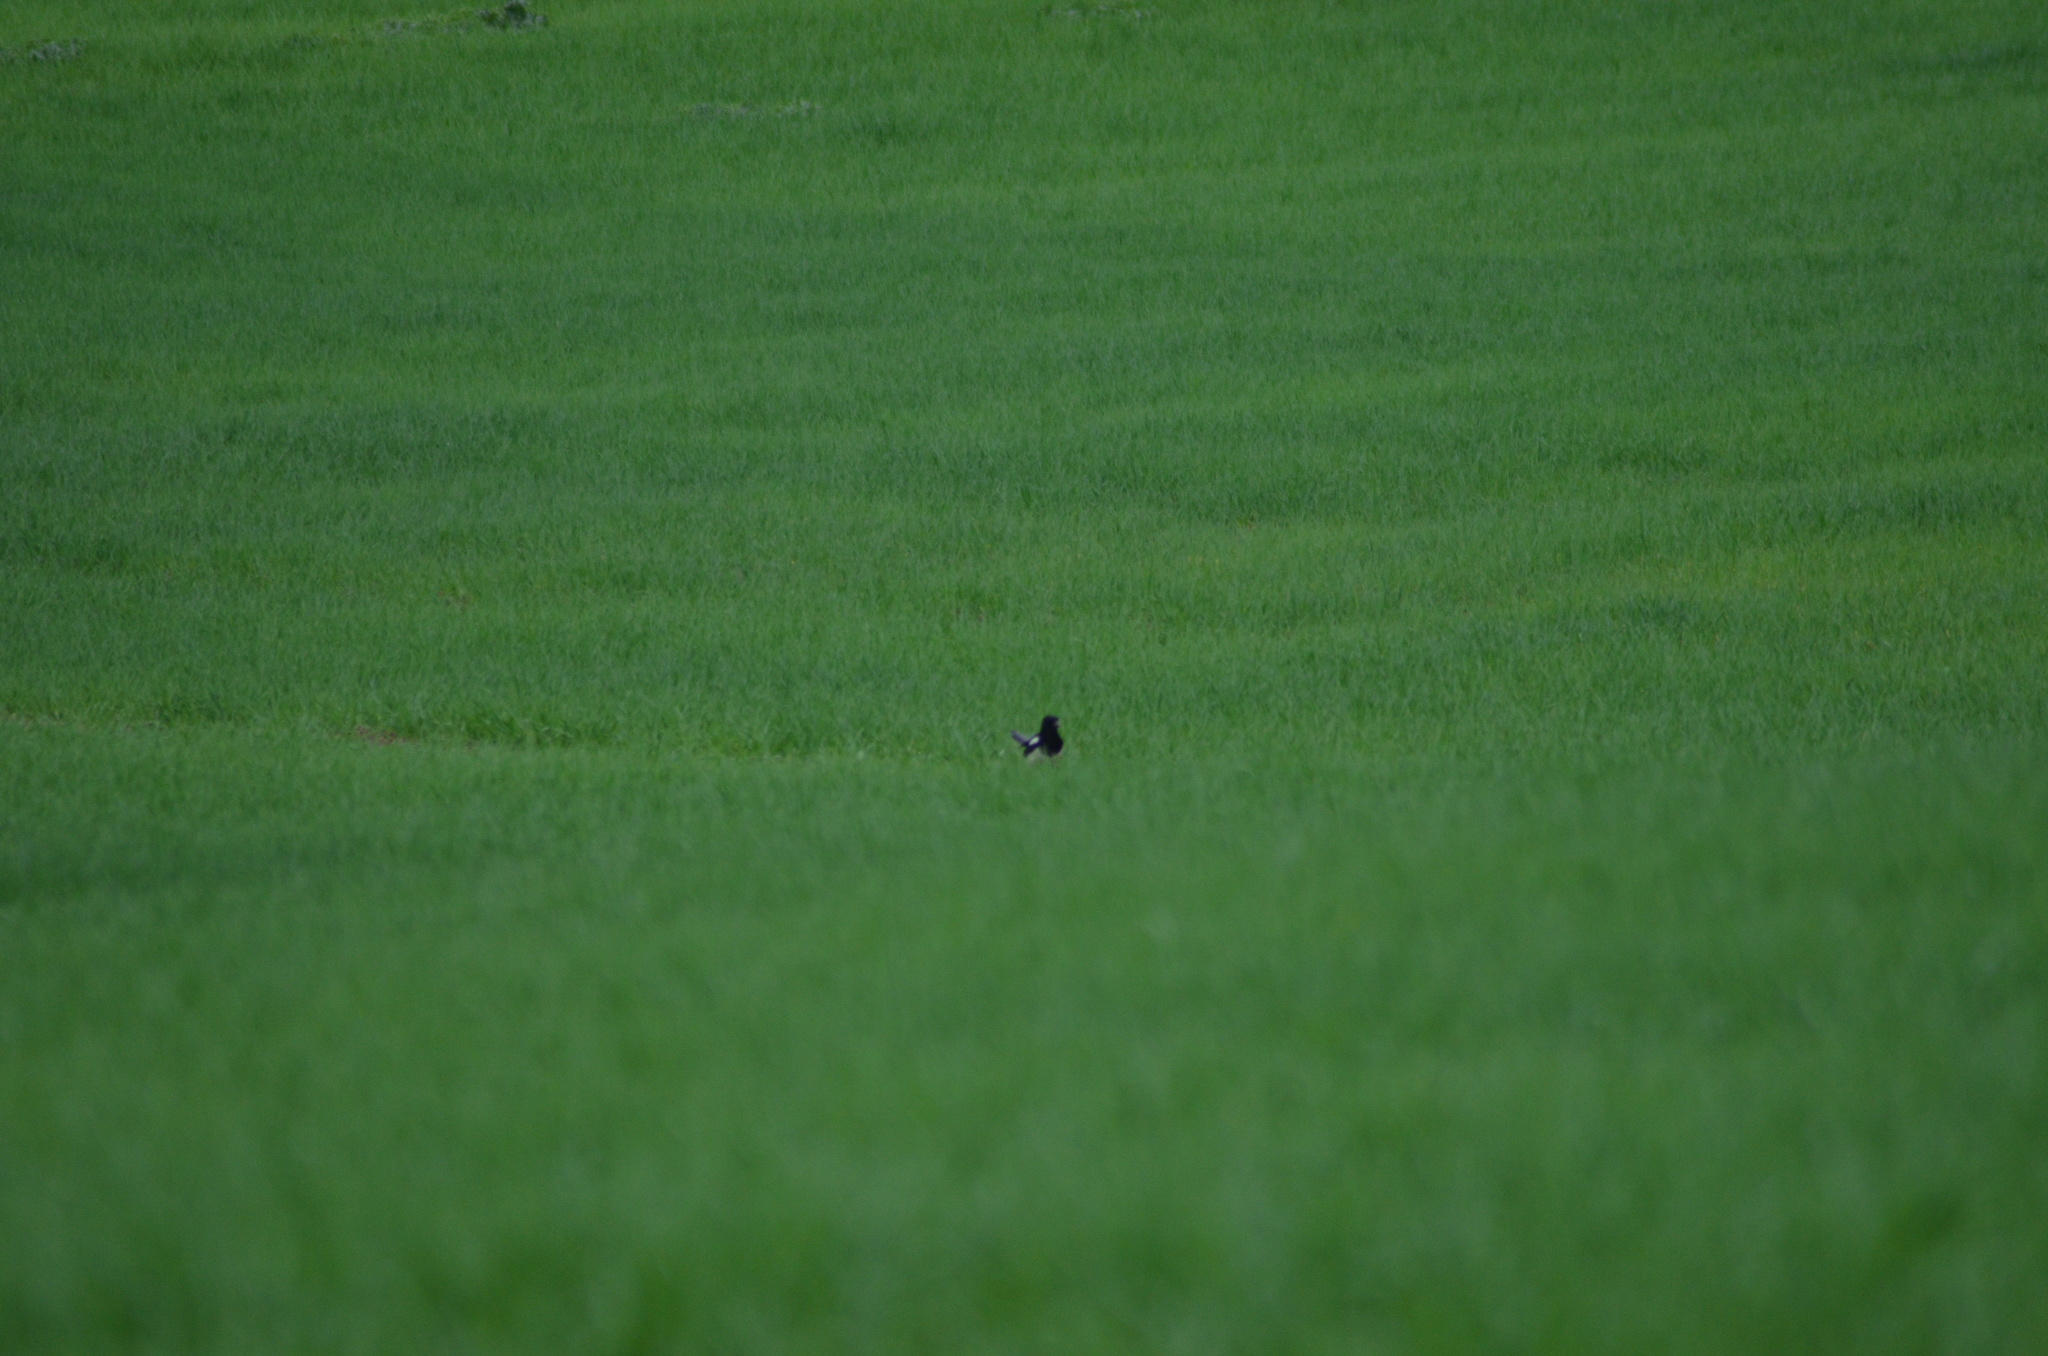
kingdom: Animalia
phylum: Chordata
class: Aves
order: Passeriformes
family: Corvidae
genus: Pica
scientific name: Pica pica
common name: Eurasian magpie
